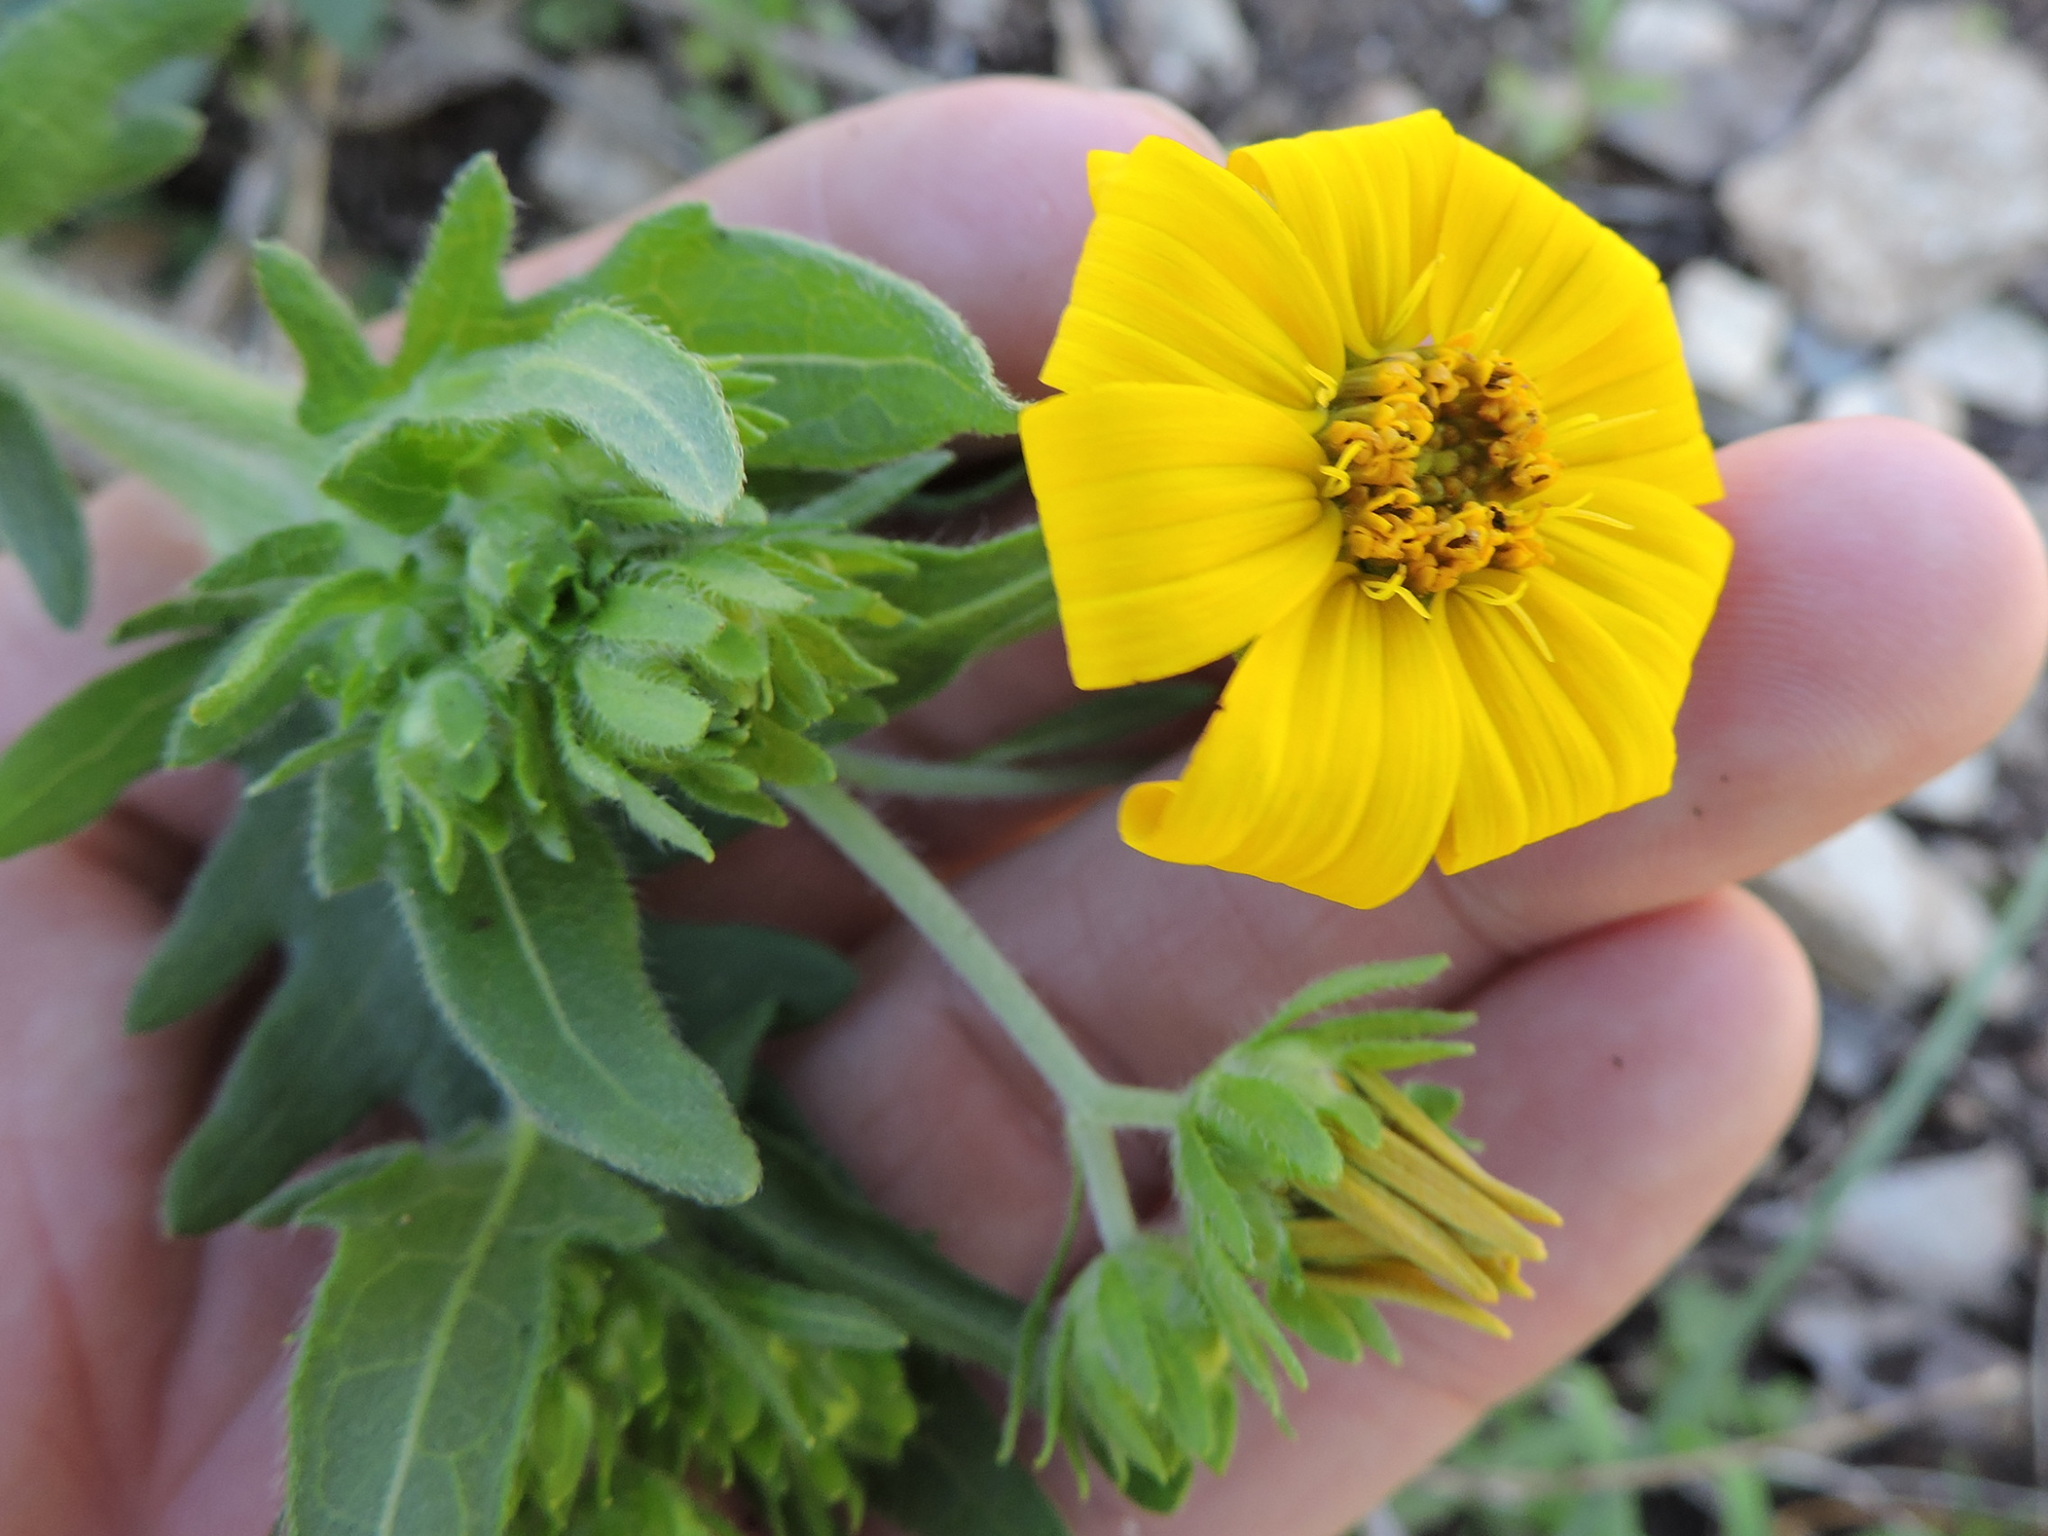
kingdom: Plantae
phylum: Tracheophyta
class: Magnoliopsida
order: Asterales
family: Asteraceae
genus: Engelmannia
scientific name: Engelmannia peristenia
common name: Engelmann's daisy
